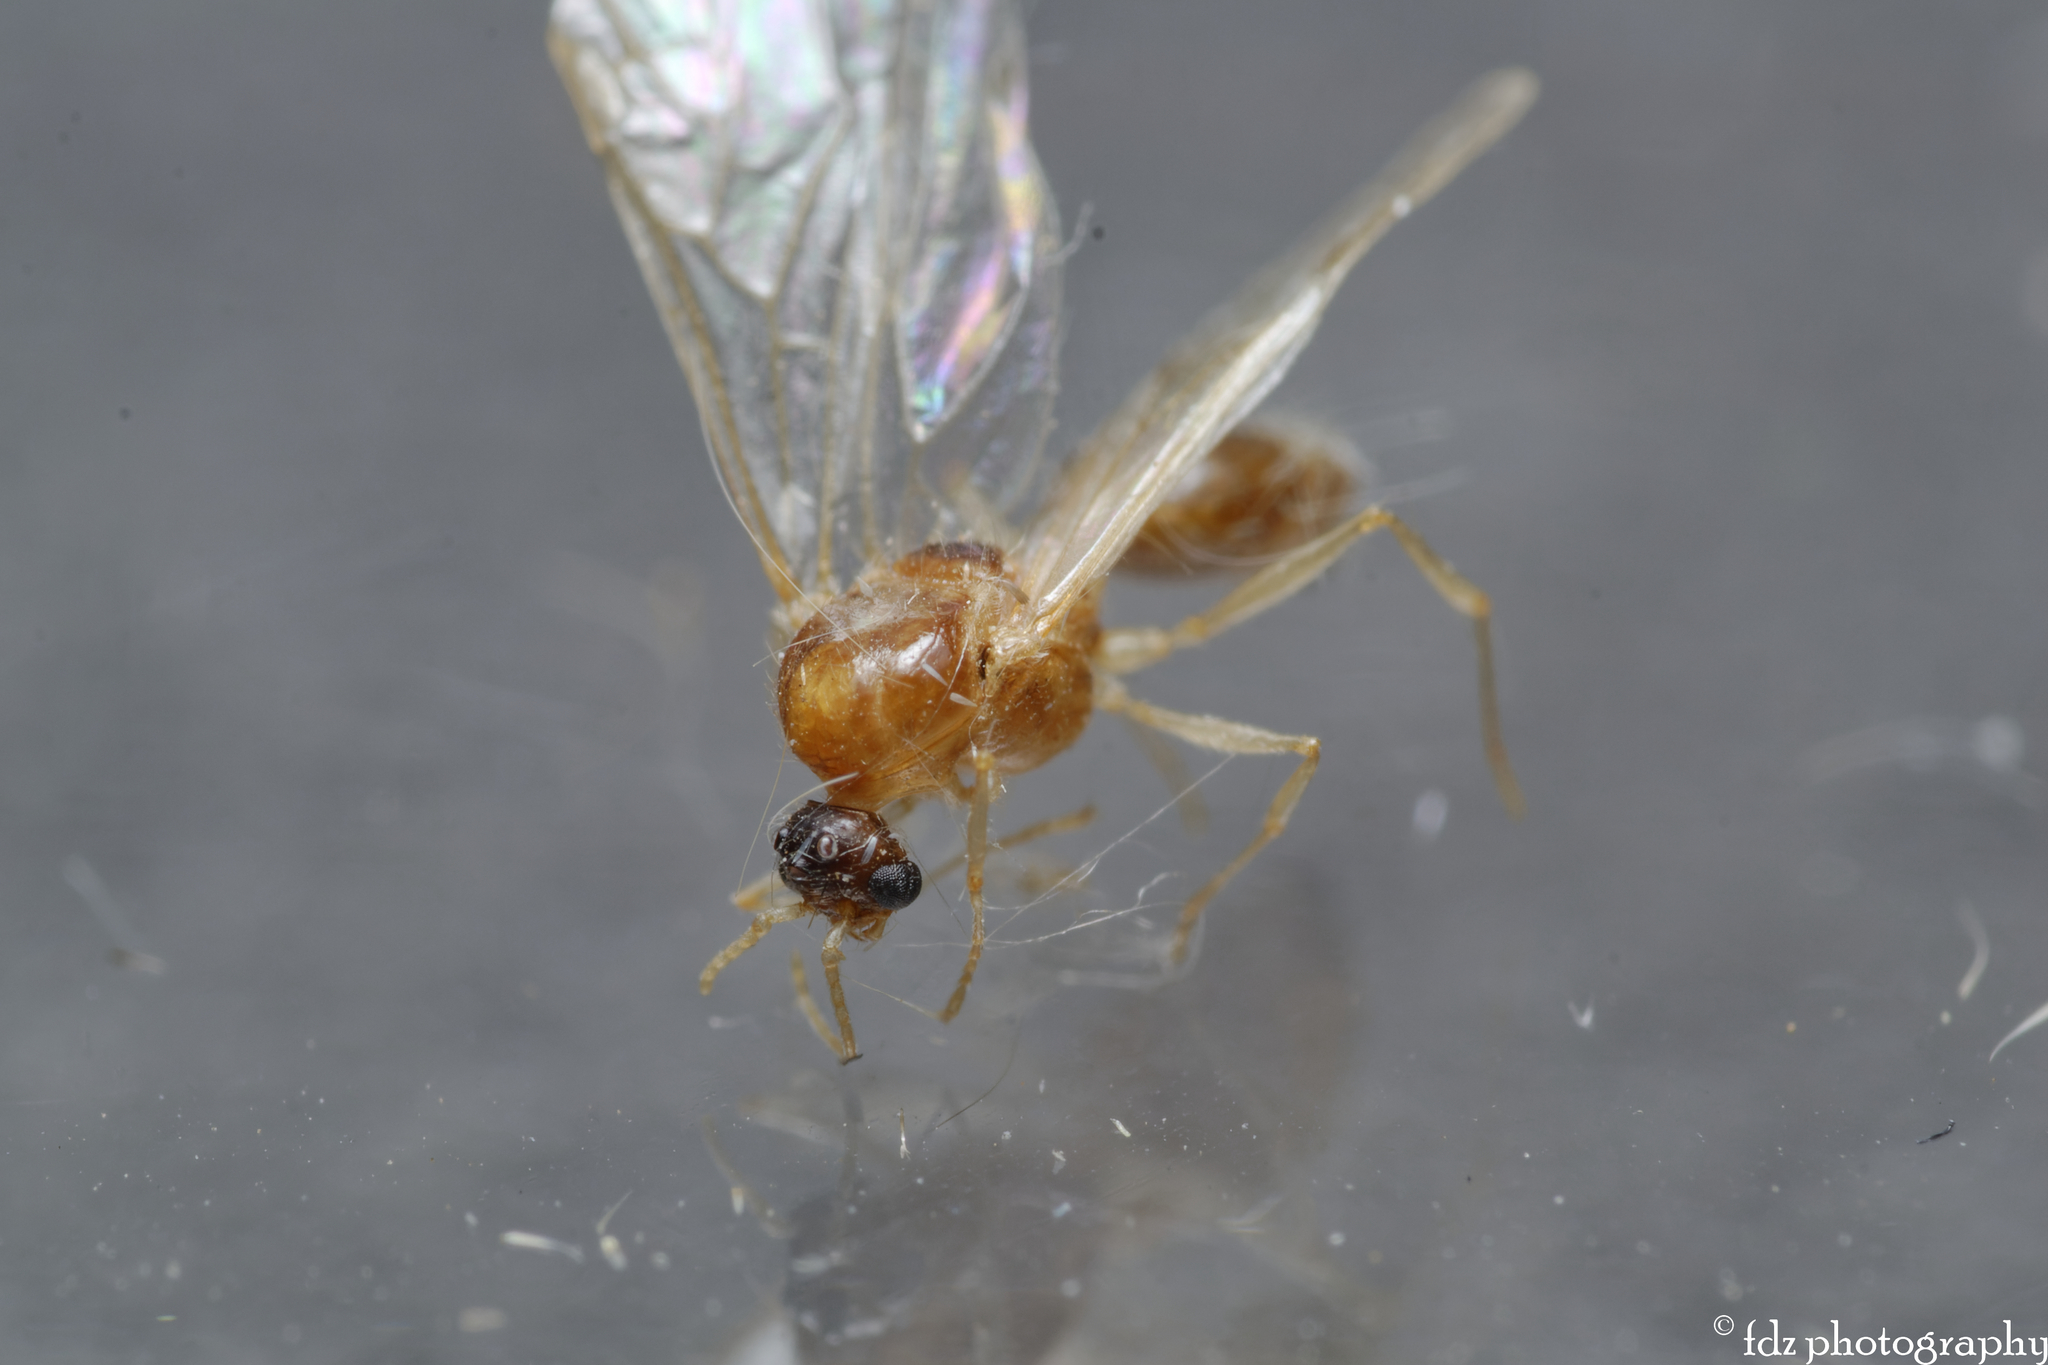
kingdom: Animalia
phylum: Arthropoda
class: Insecta
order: Hymenoptera
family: Formicidae
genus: Pheidole
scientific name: Pheidole pallidula
